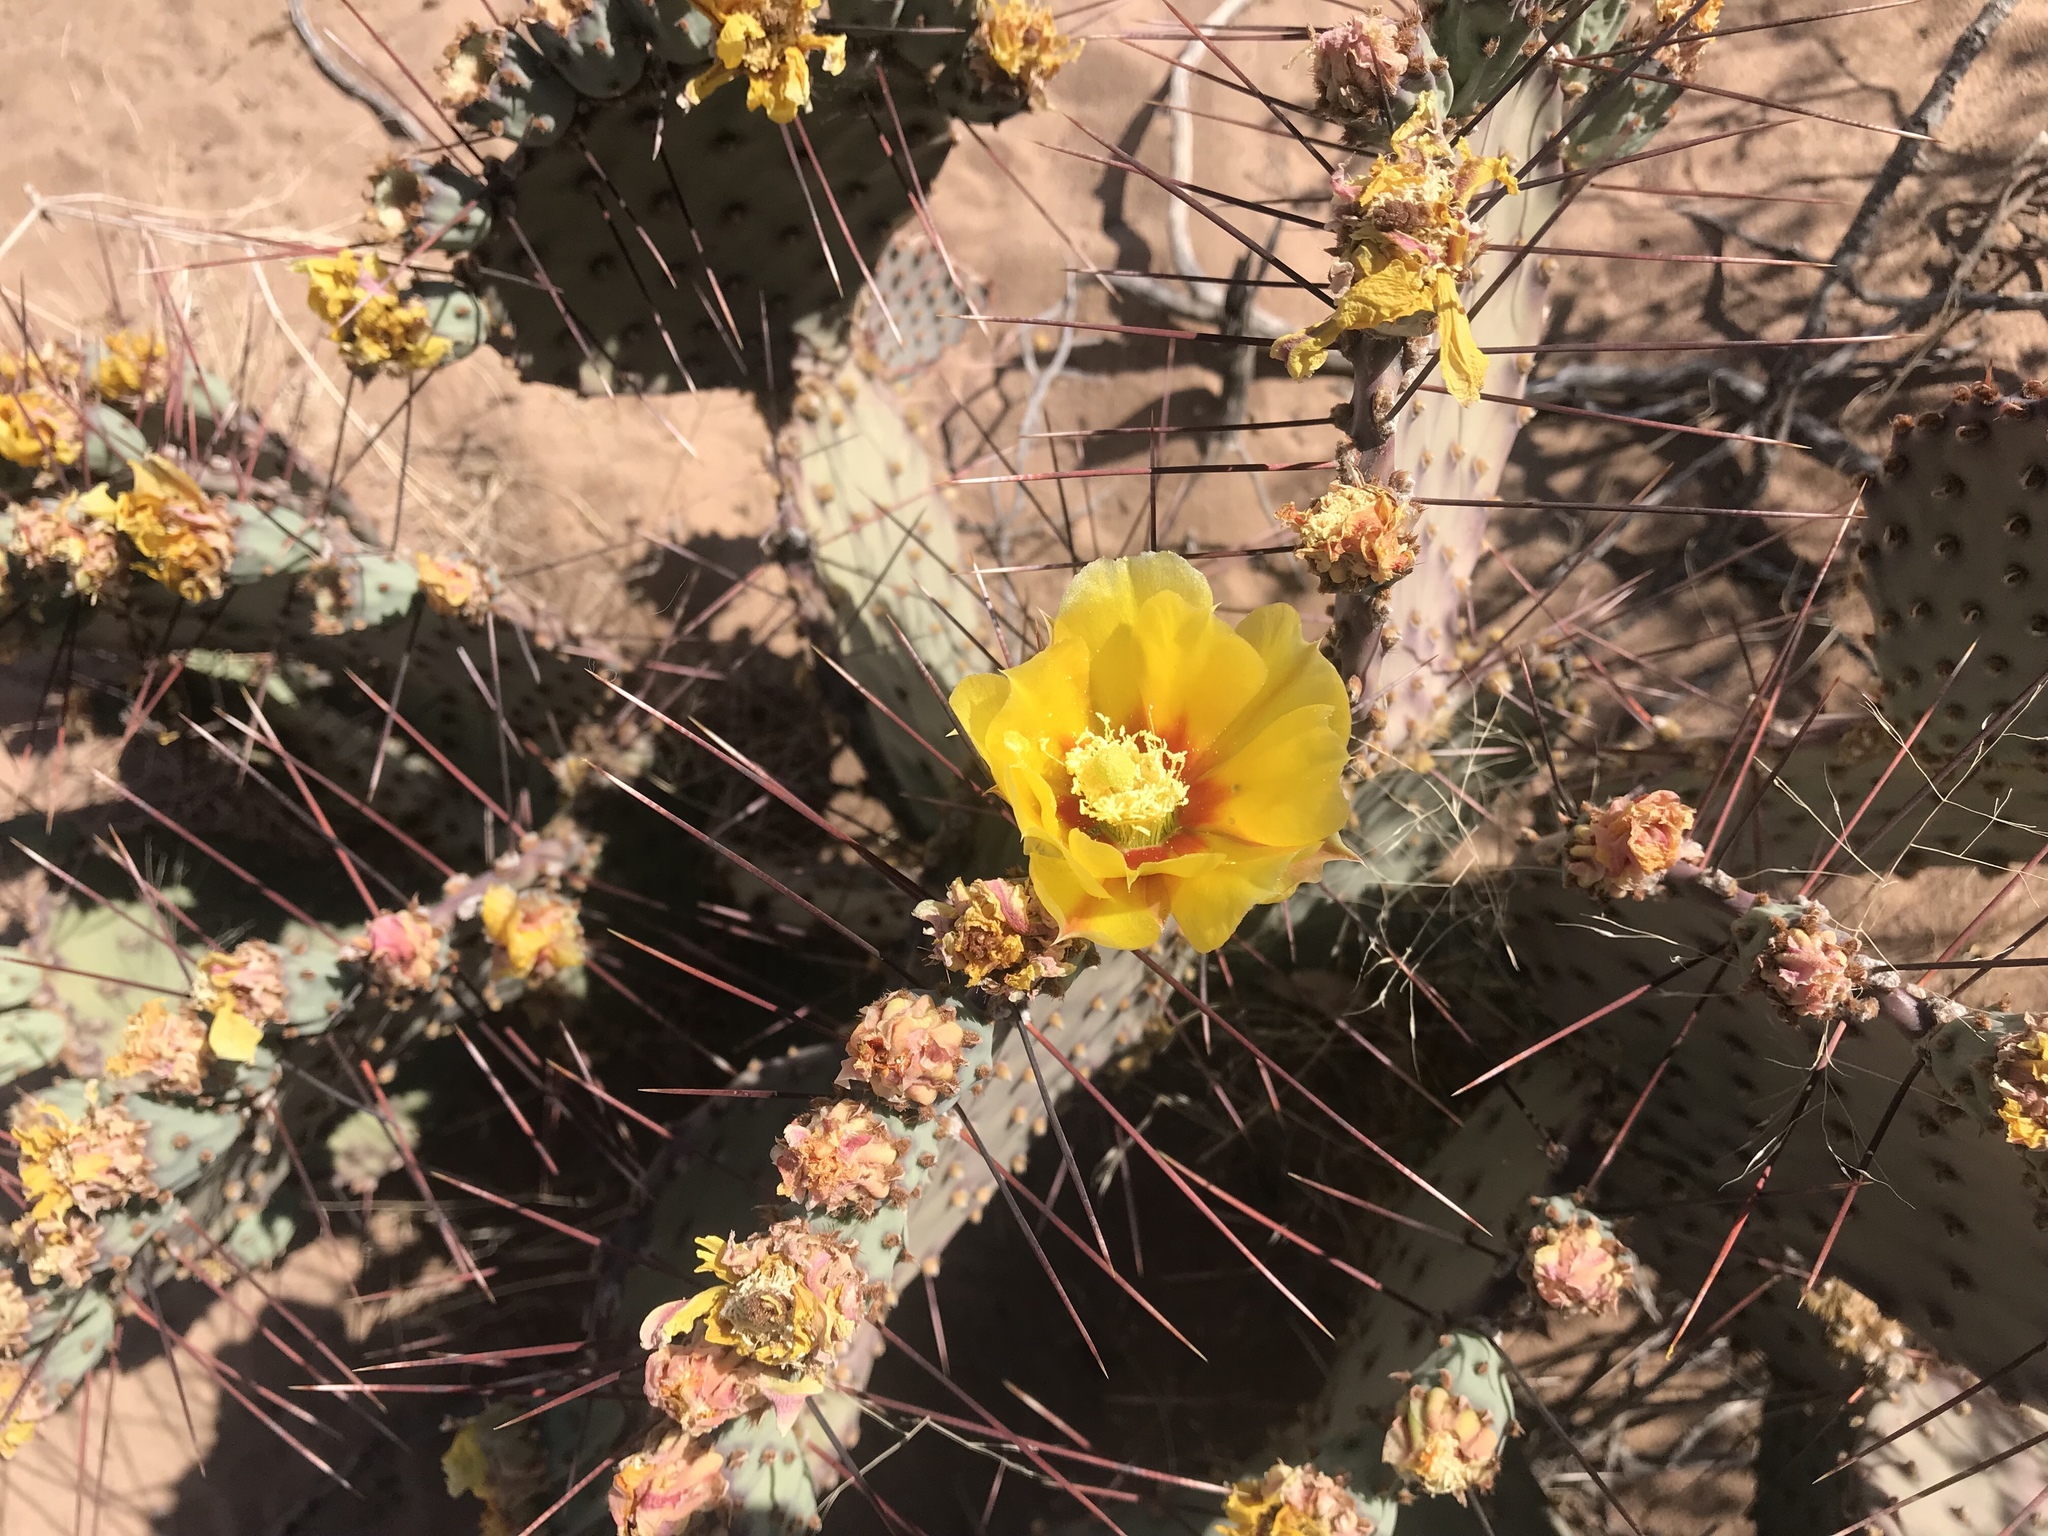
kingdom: Plantae
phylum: Tracheophyta
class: Magnoliopsida
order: Caryophyllales
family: Cactaceae
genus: Opuntia
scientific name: Opuntia macrocentra
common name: Purple prickly-pear
